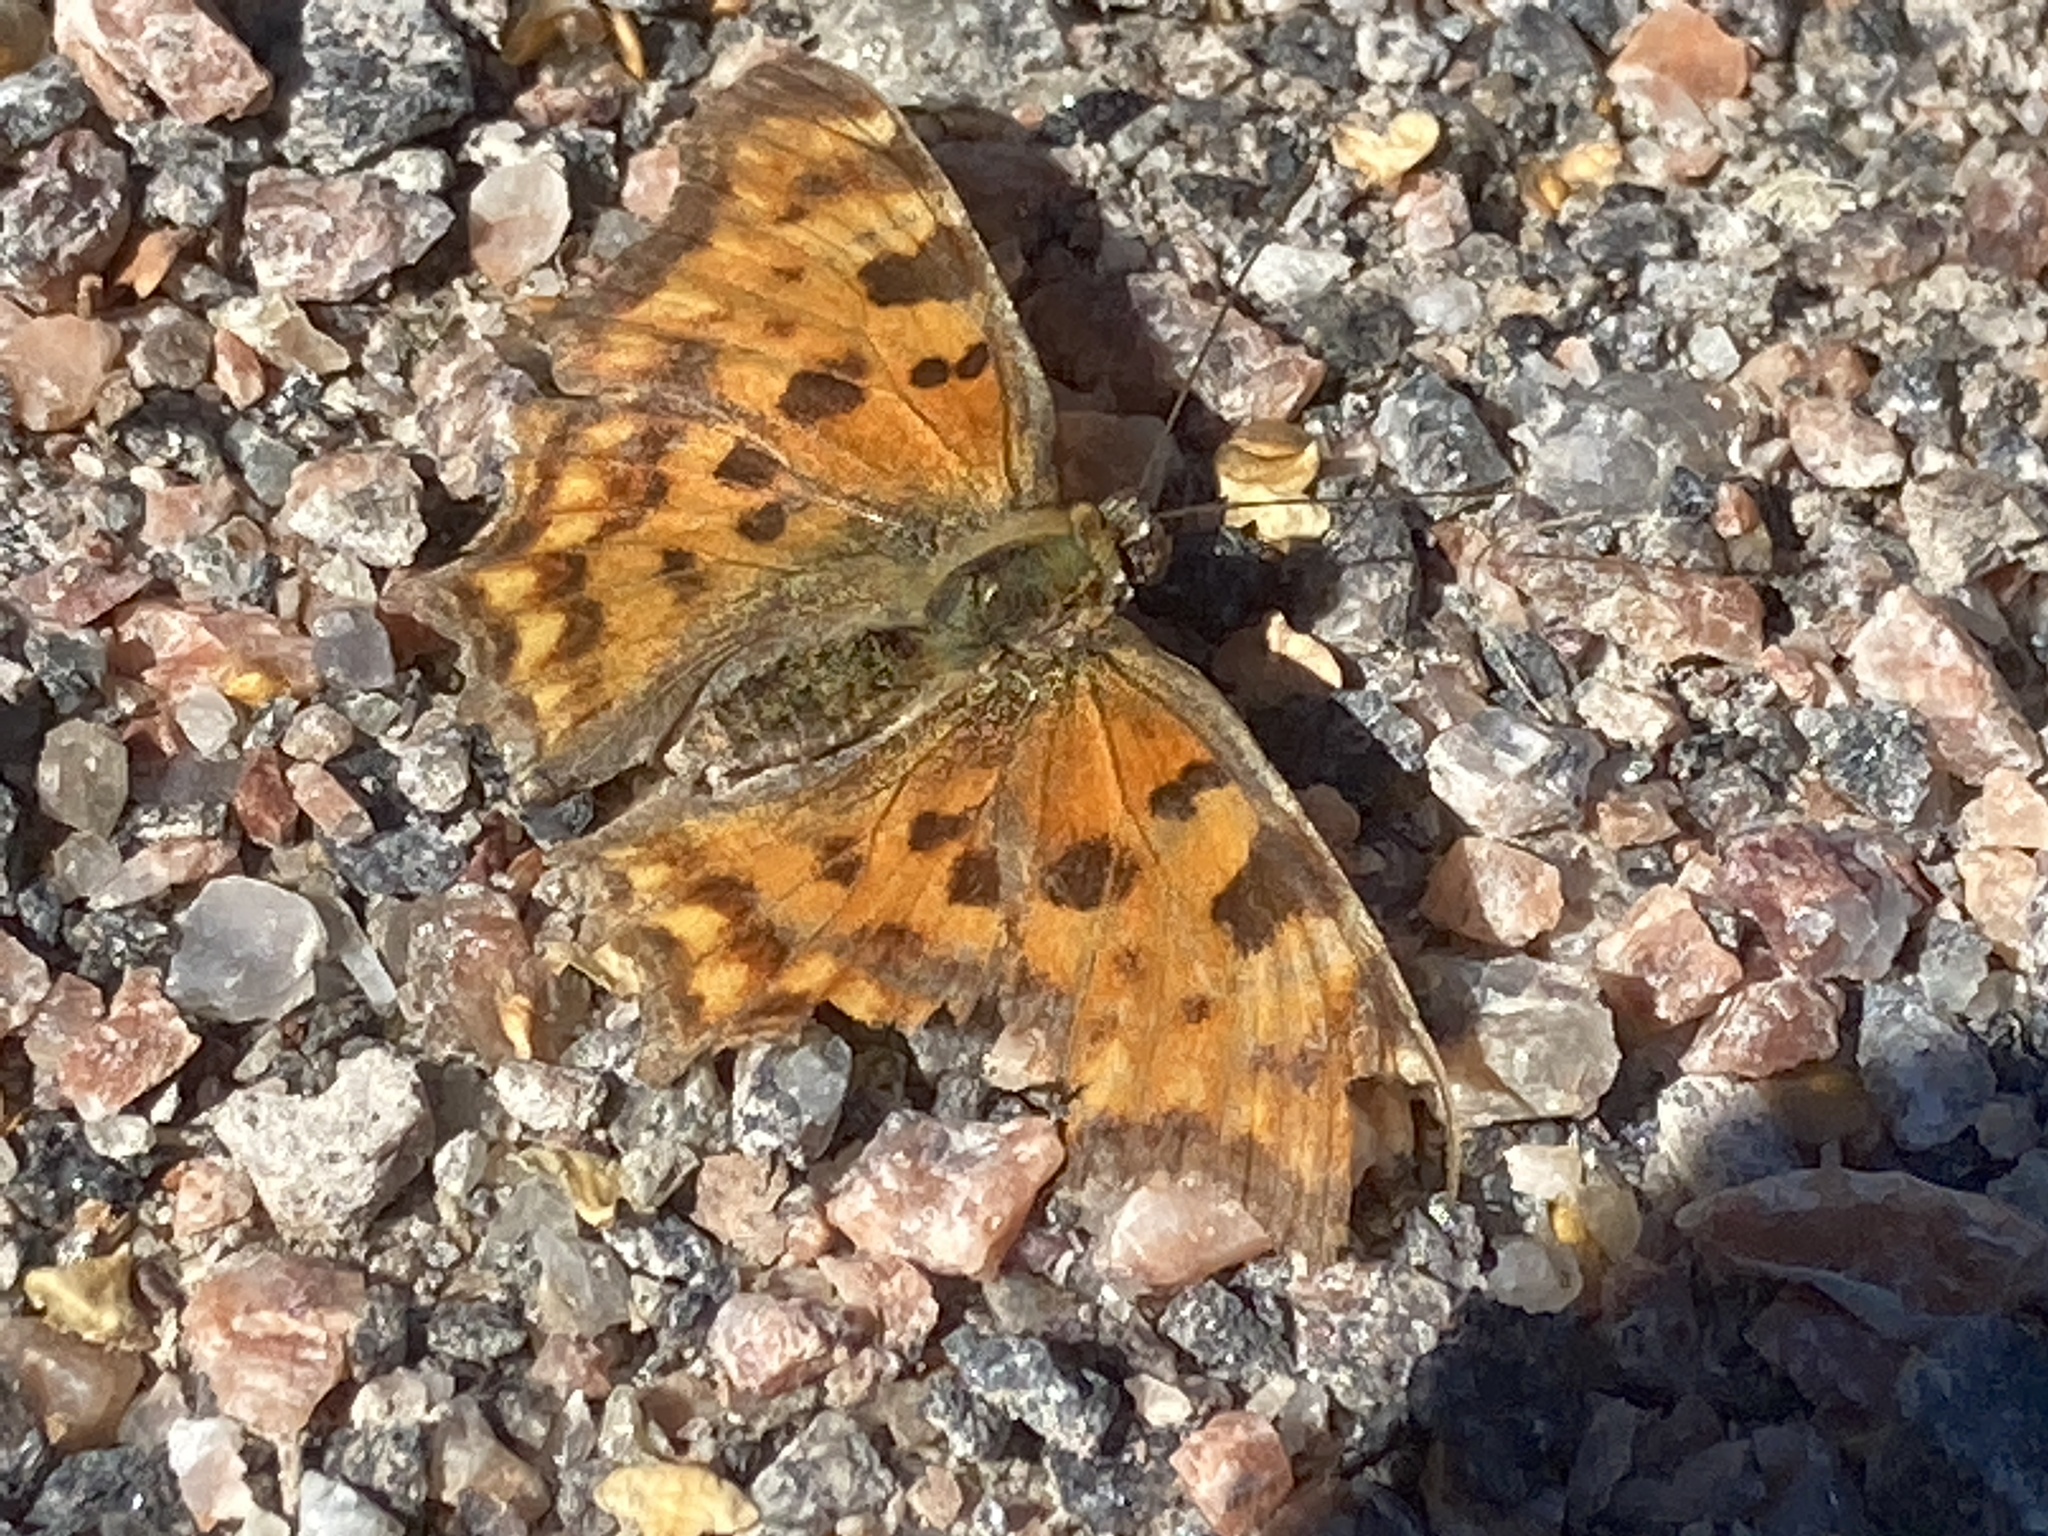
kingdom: Animalia
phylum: Arthropoda
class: Insecta
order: Lepidoptera
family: Nymphalidae
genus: Polygonia
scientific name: Polygonia c-album
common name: Comma
